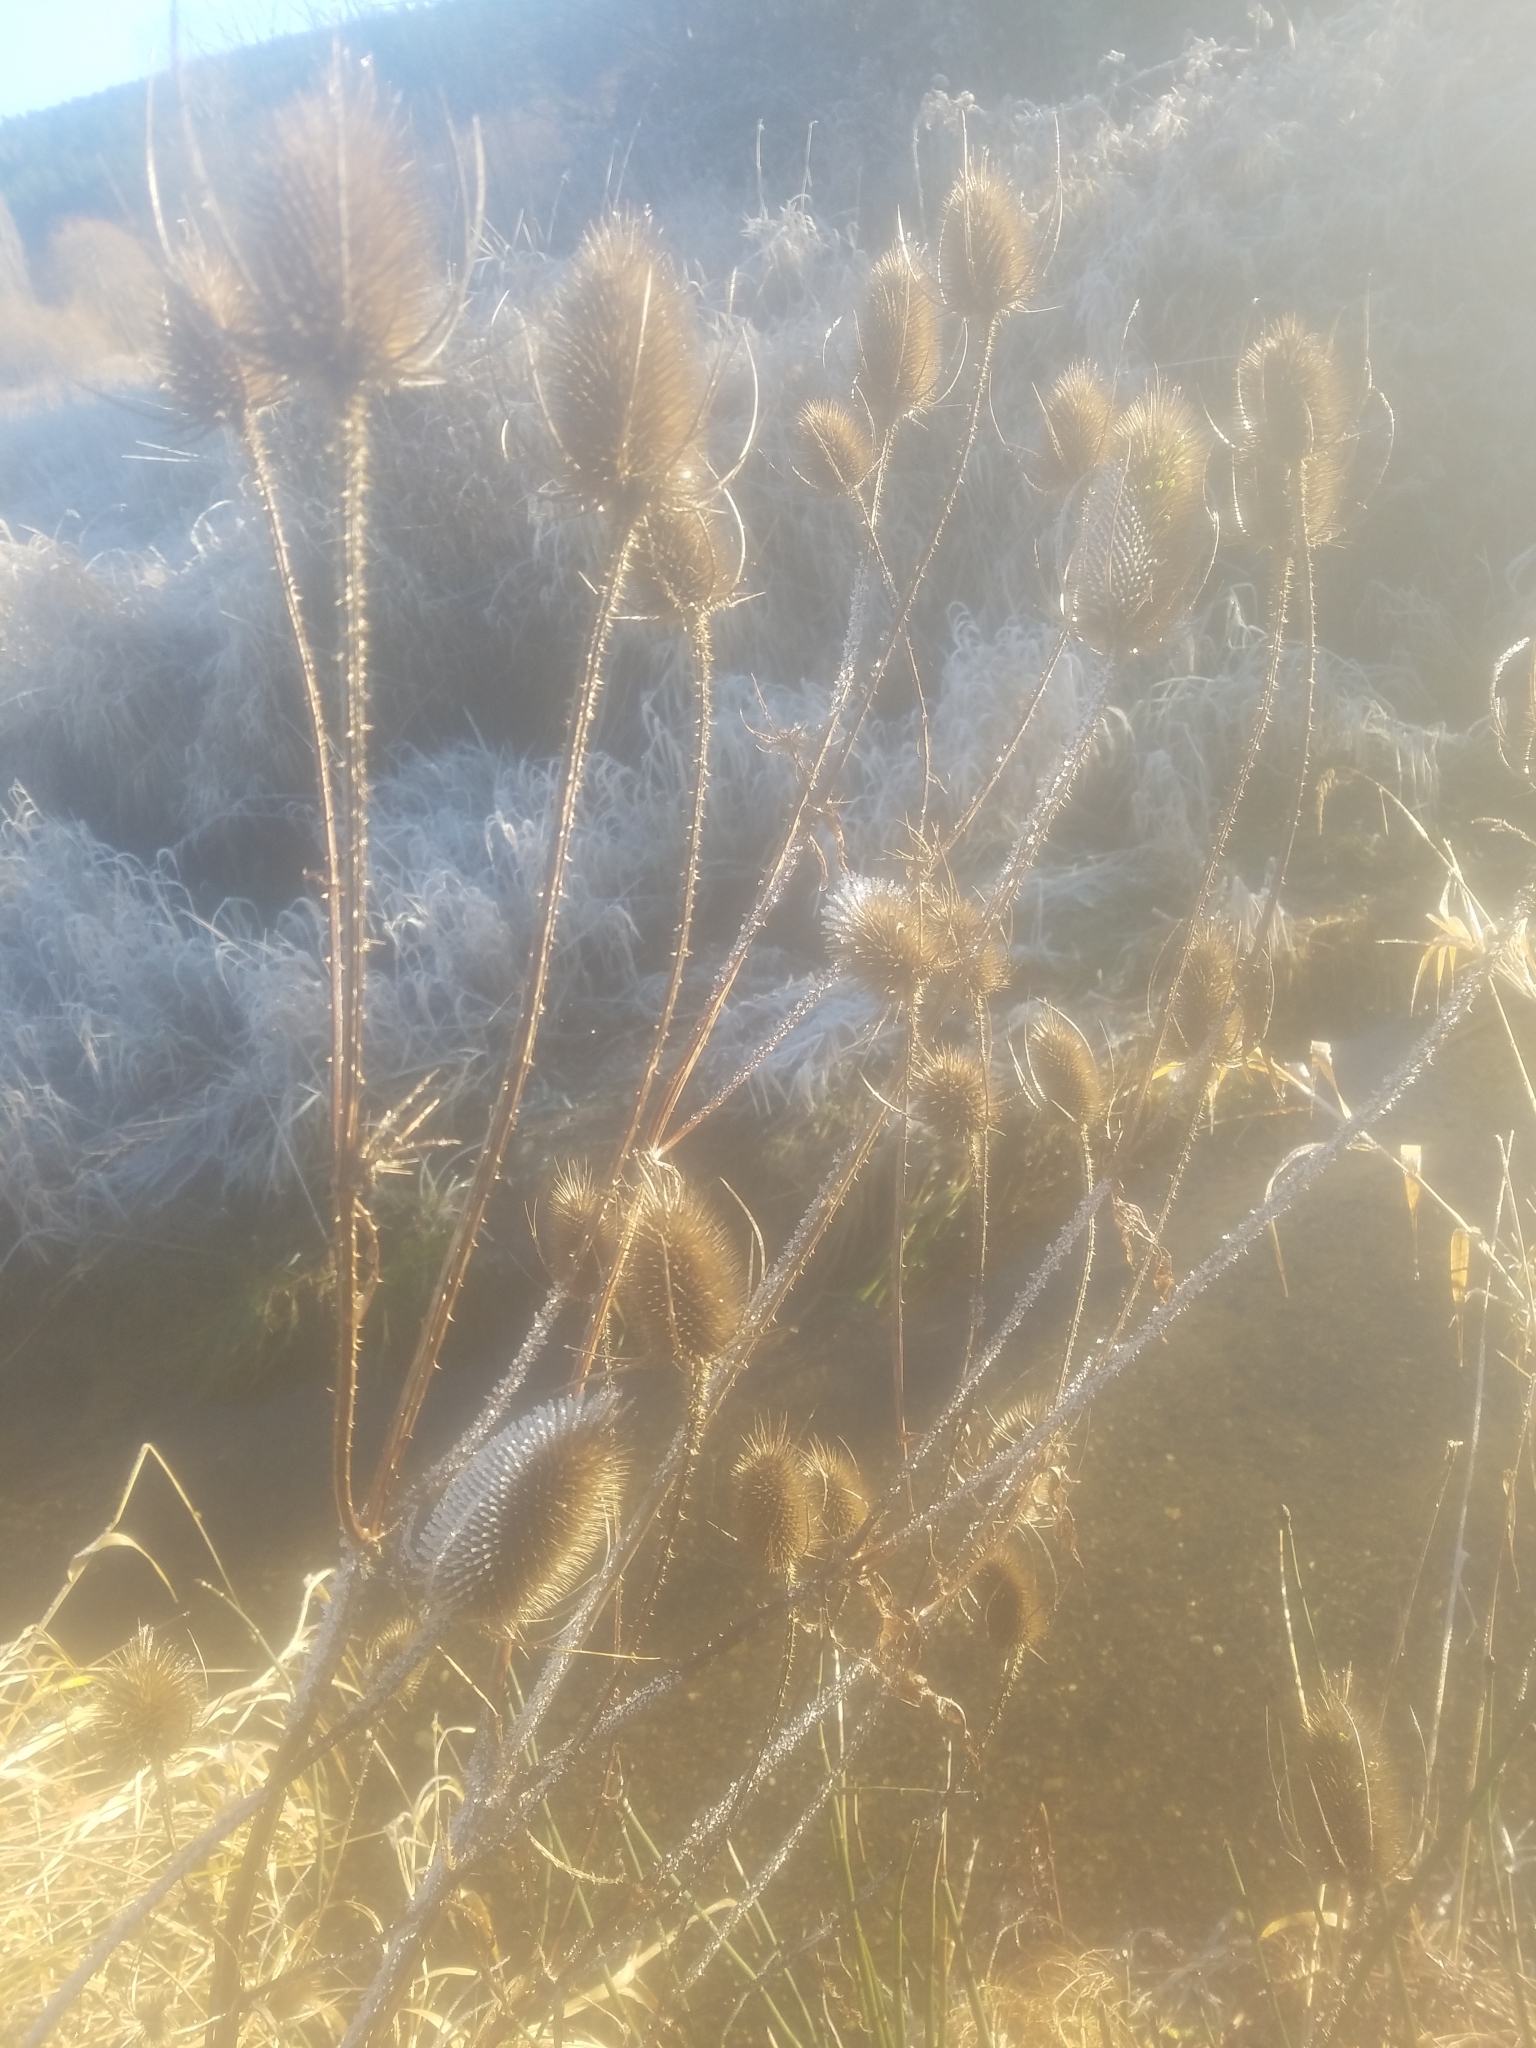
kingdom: Plantae
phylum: Tracheophyta
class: Magnoliopsida
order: Dipsacales
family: Caprifoliaceae
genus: Dipsacus
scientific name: Dipsacus fullonum
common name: Teasel
